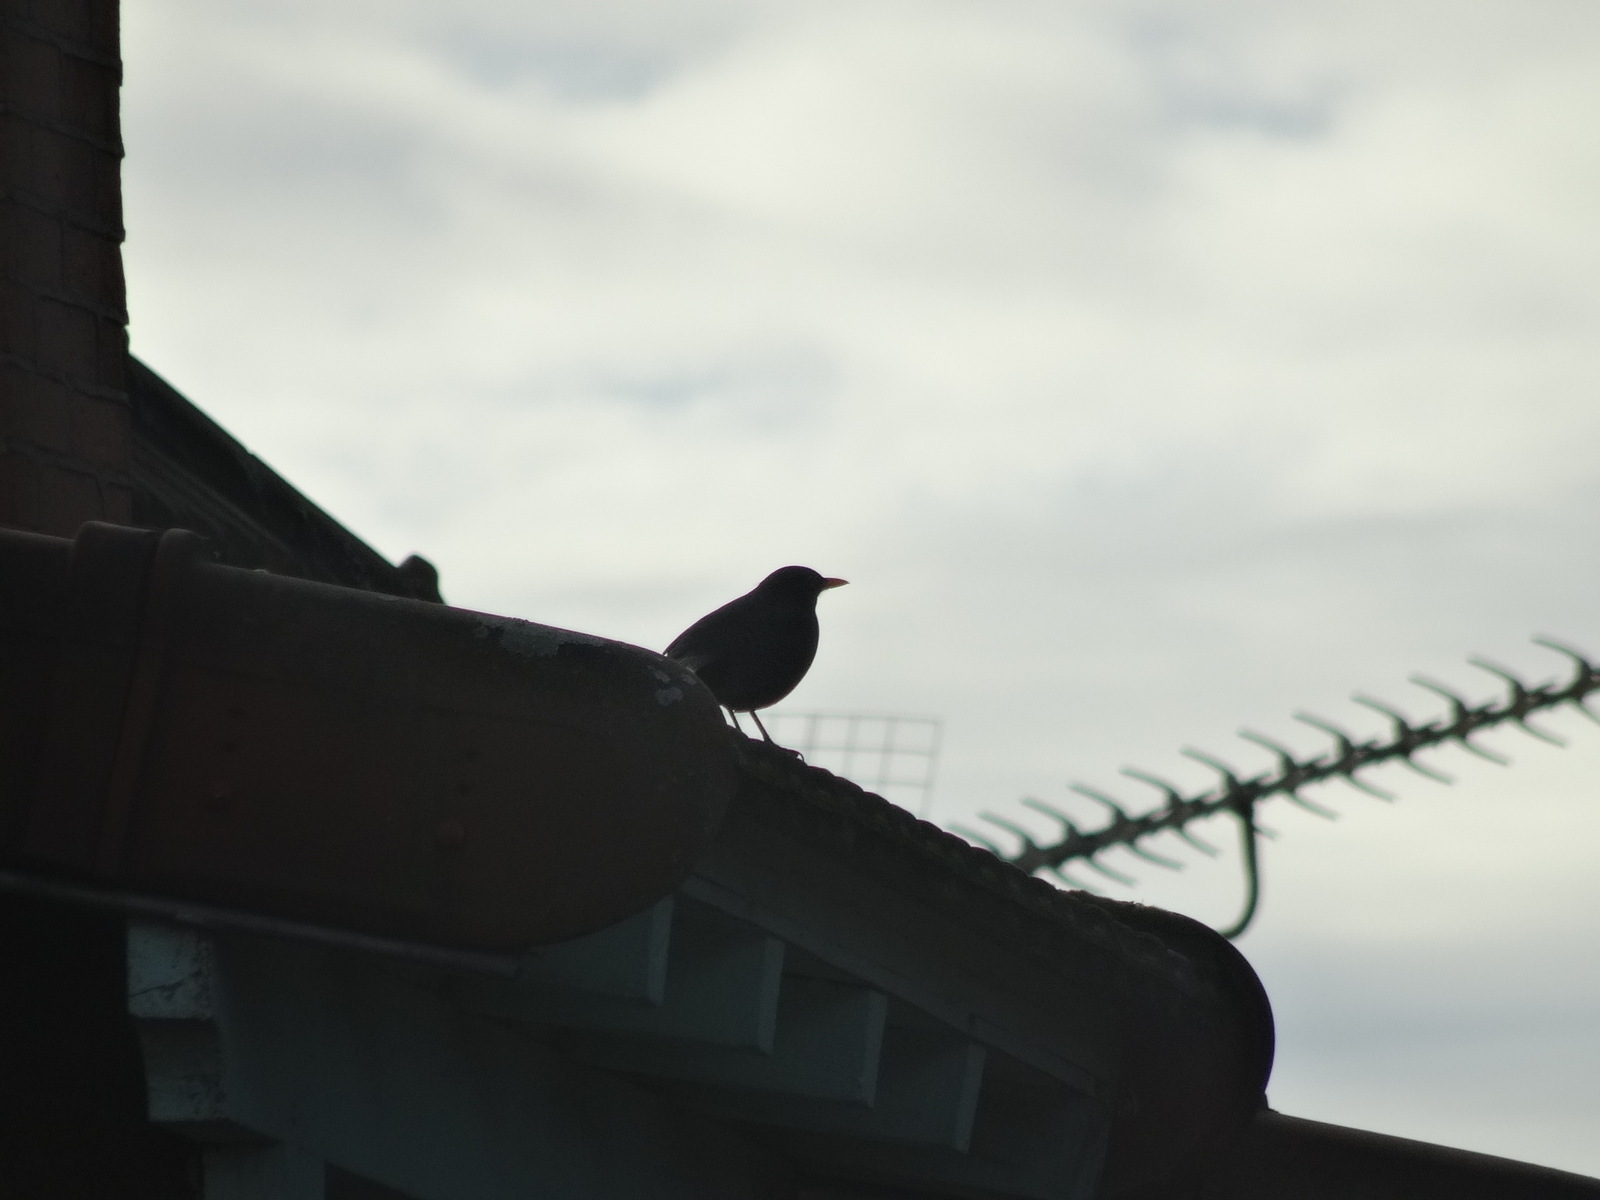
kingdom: Animalia
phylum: Chordata
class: Aves
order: Passeriformes
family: Turdidae
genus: Turdus
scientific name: Turdus merula
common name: Common blackbird
